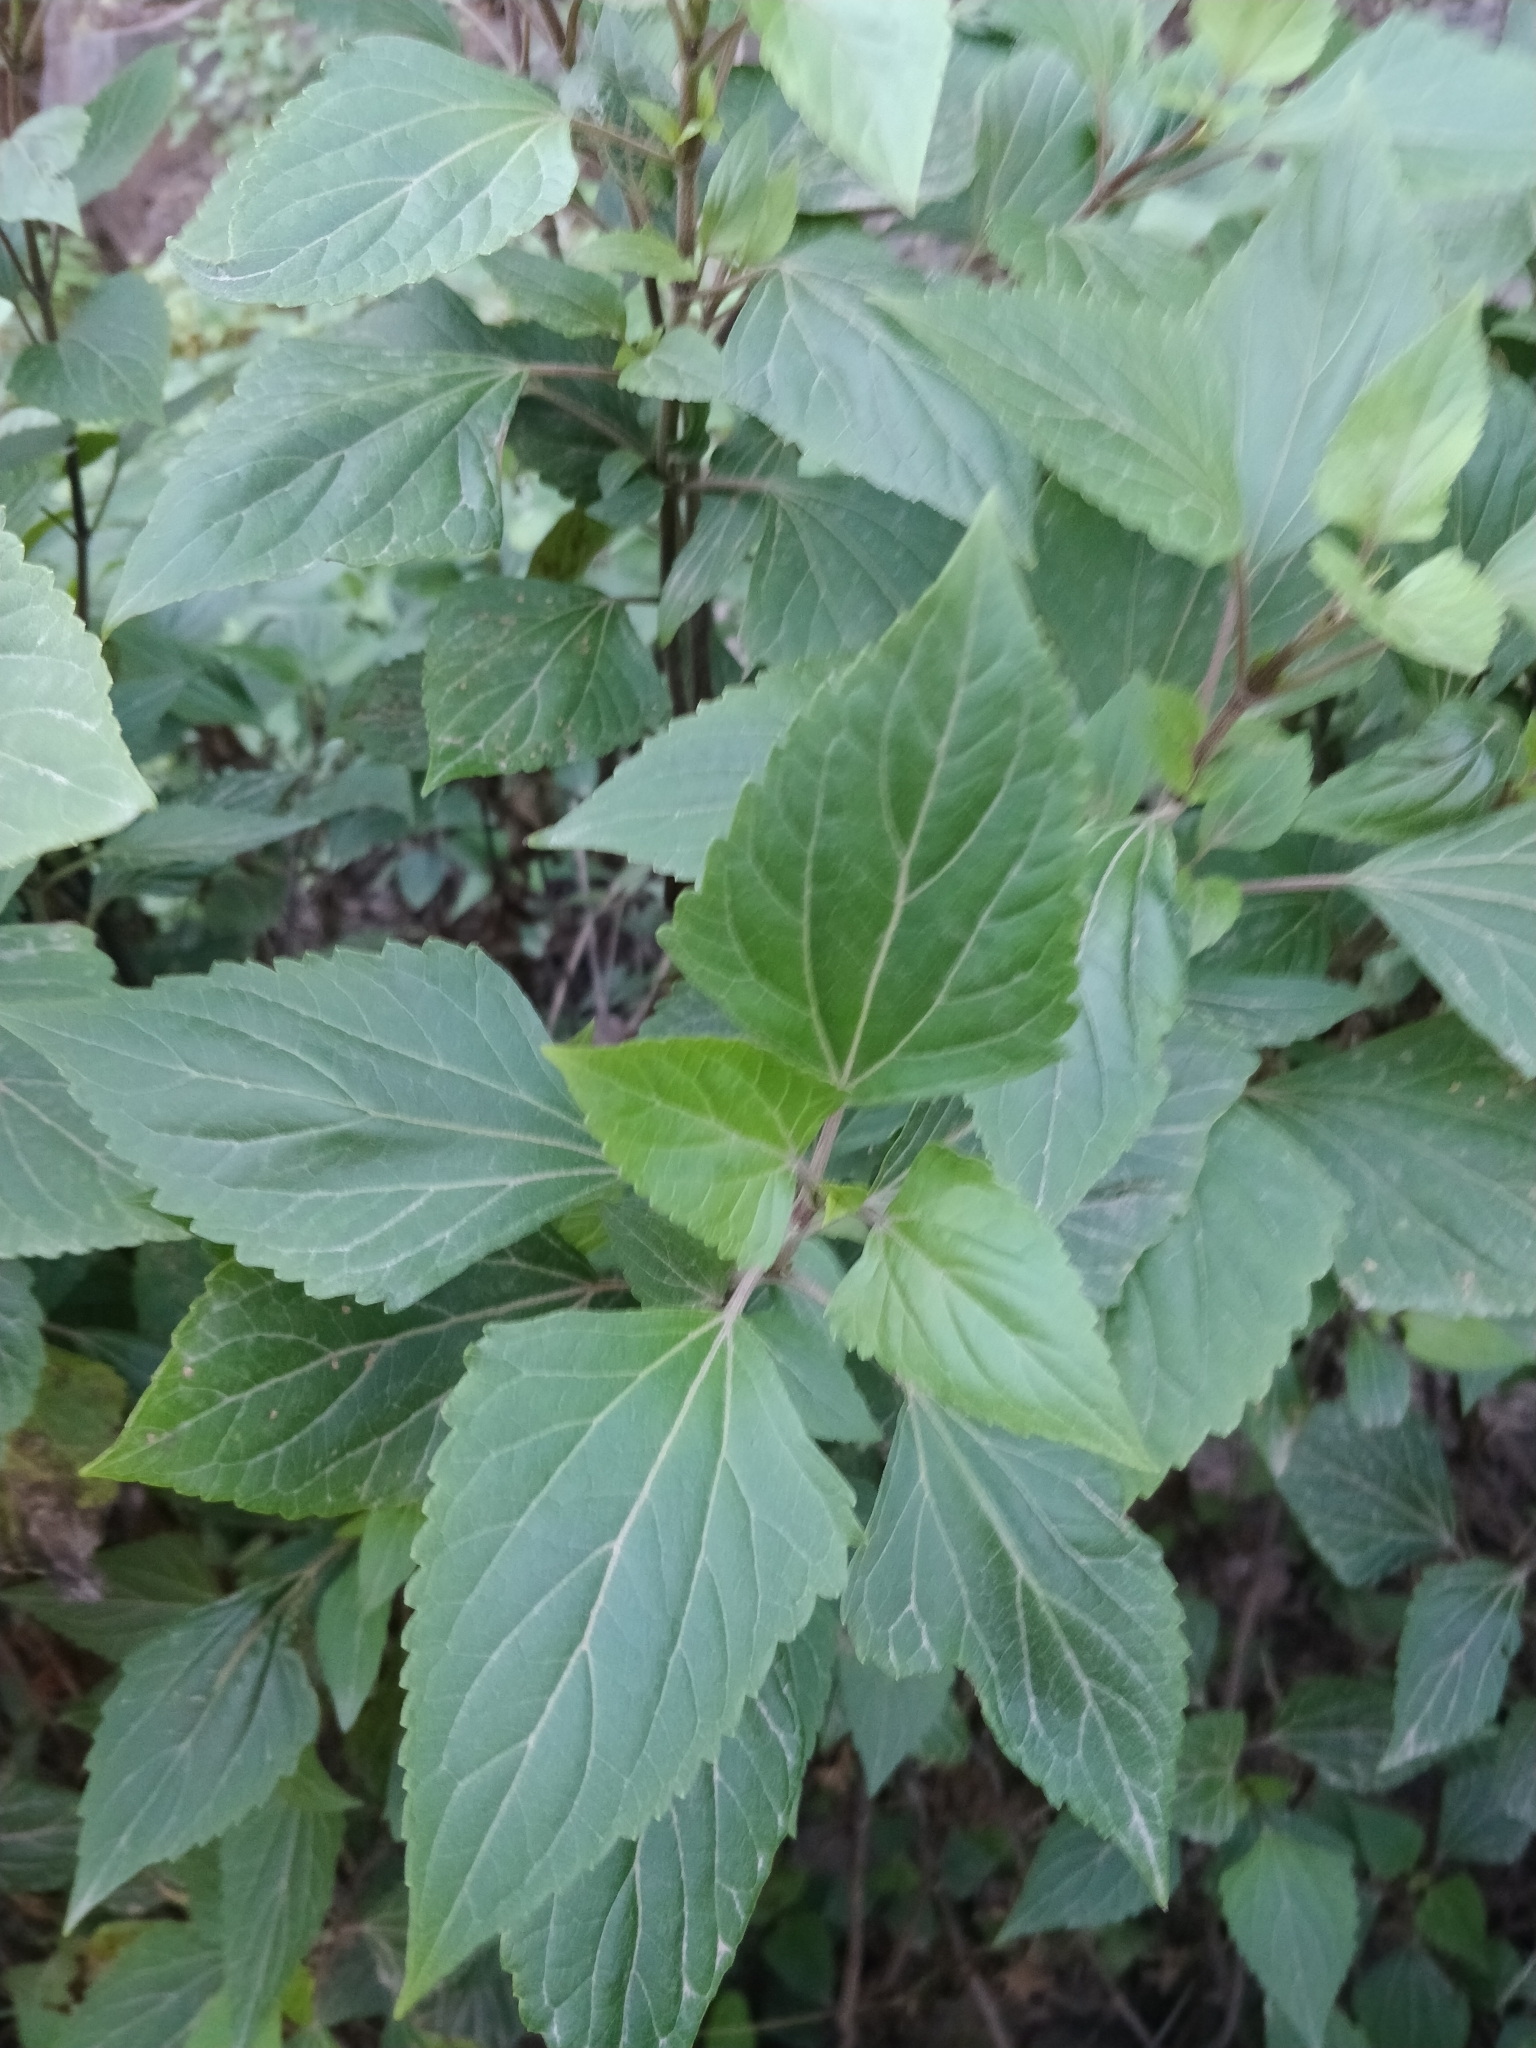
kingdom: Plantae
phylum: Tracheophyta
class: Magnoliopsida
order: Asterales
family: Asteraceae
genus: Ageratina
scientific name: Ageratina adenophora
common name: Sticky snakeroot
